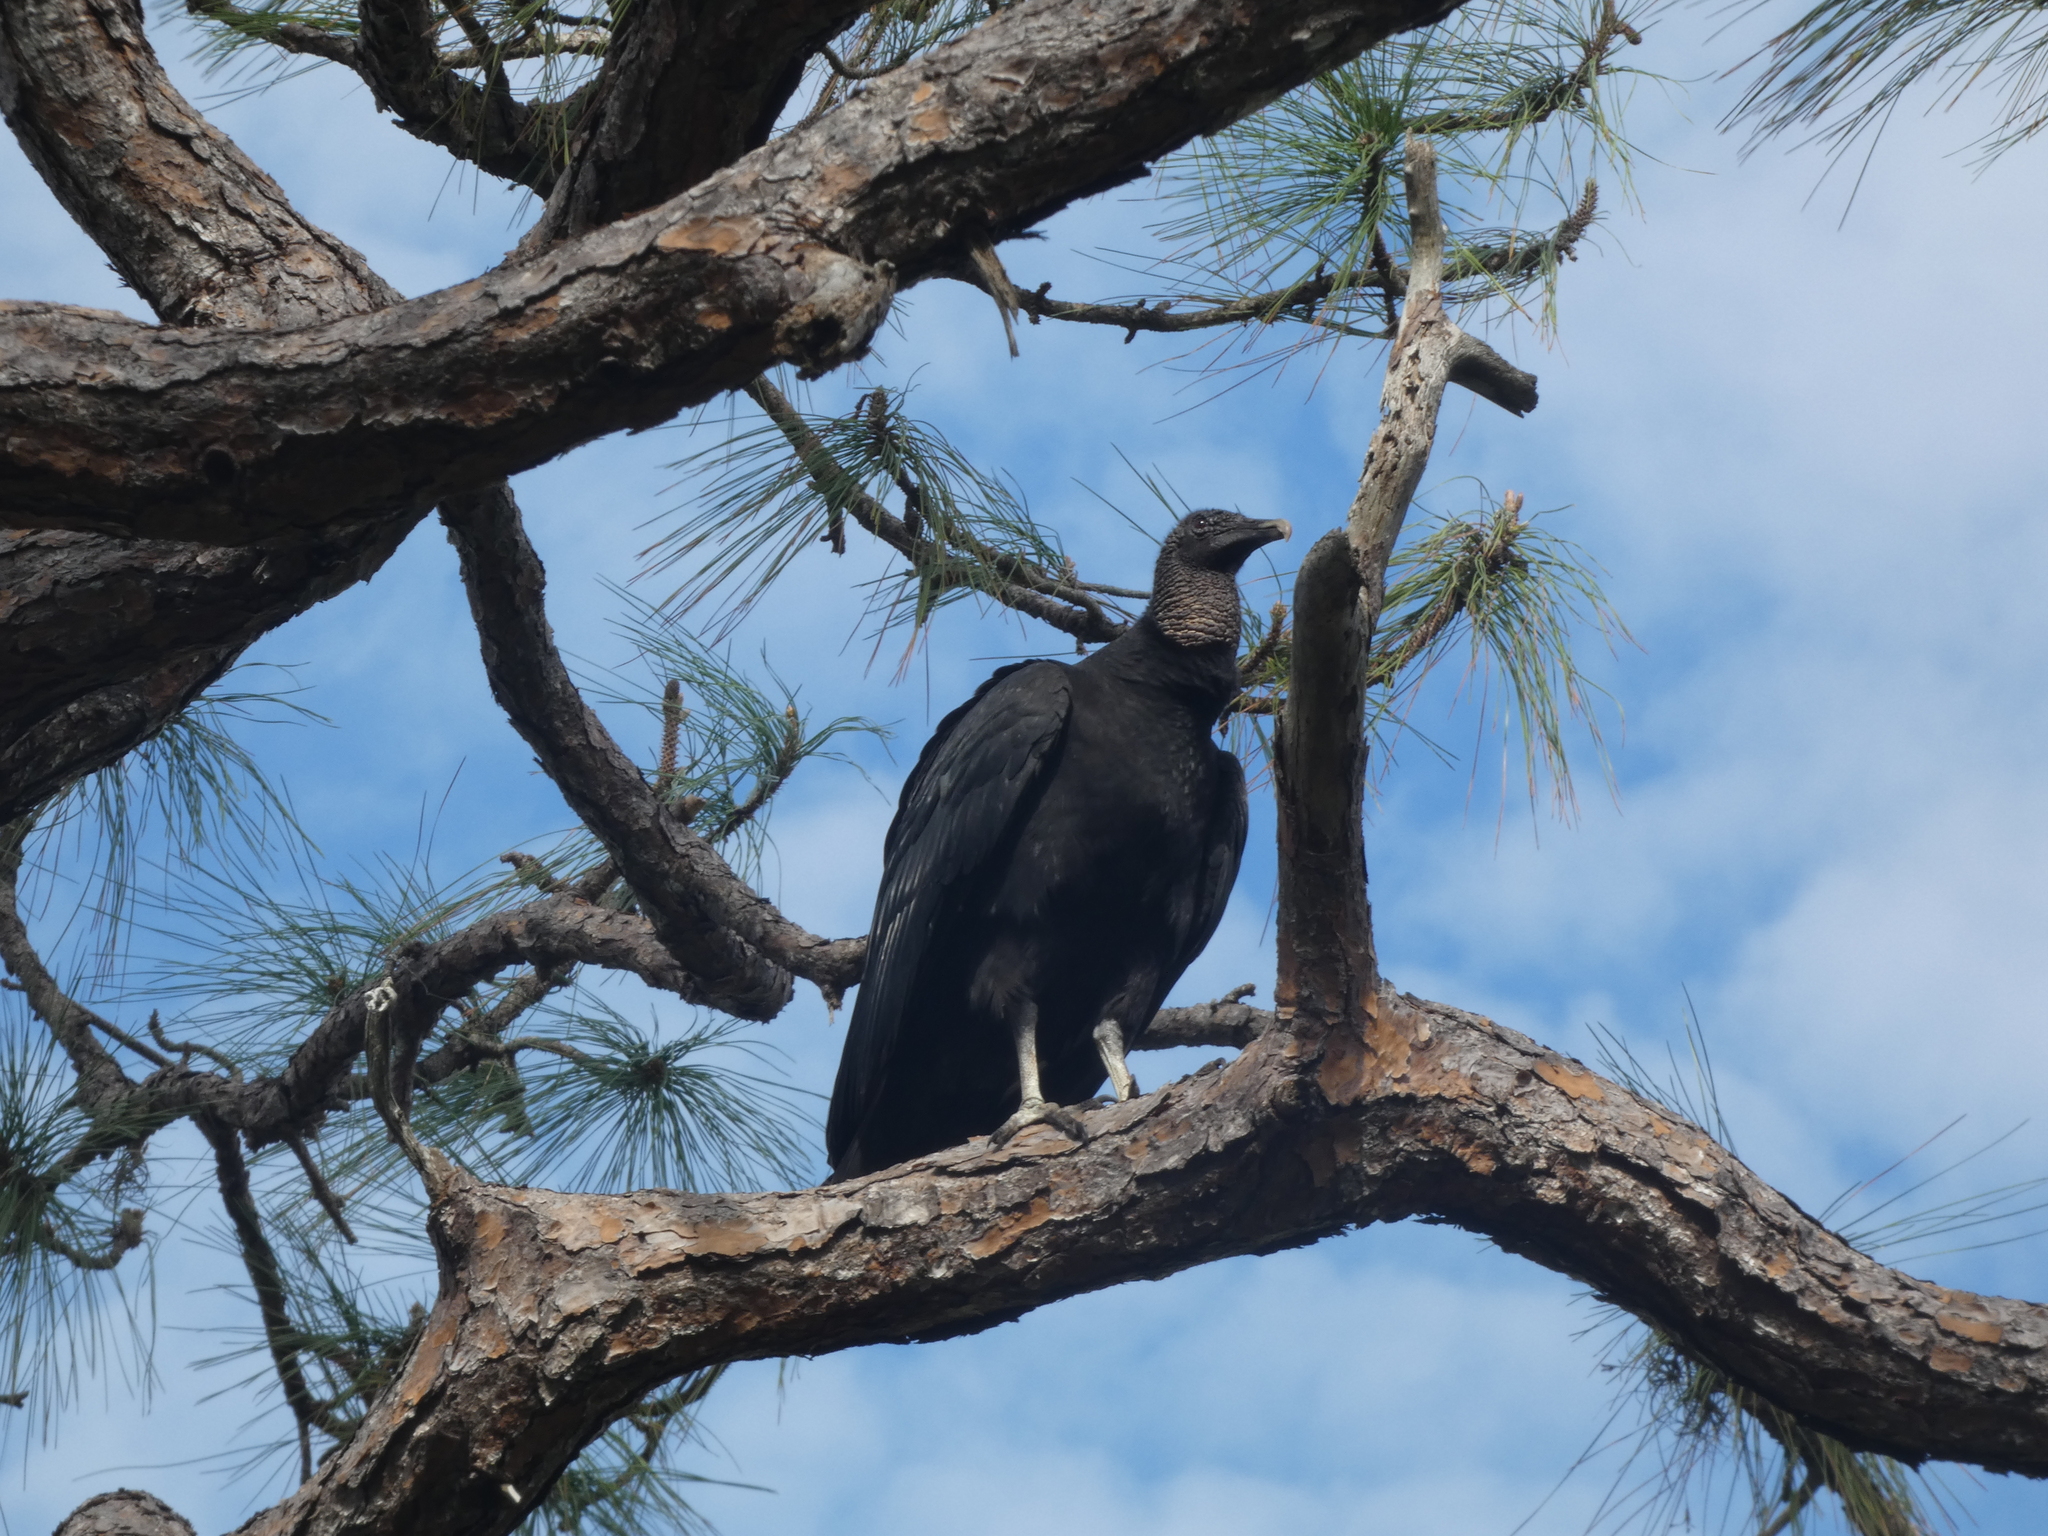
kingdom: Animalia
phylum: Chordata
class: Aves
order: Accipitriformes
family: Cathartidae
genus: Coragyps
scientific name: Coragyps atratus
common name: Black vulture
